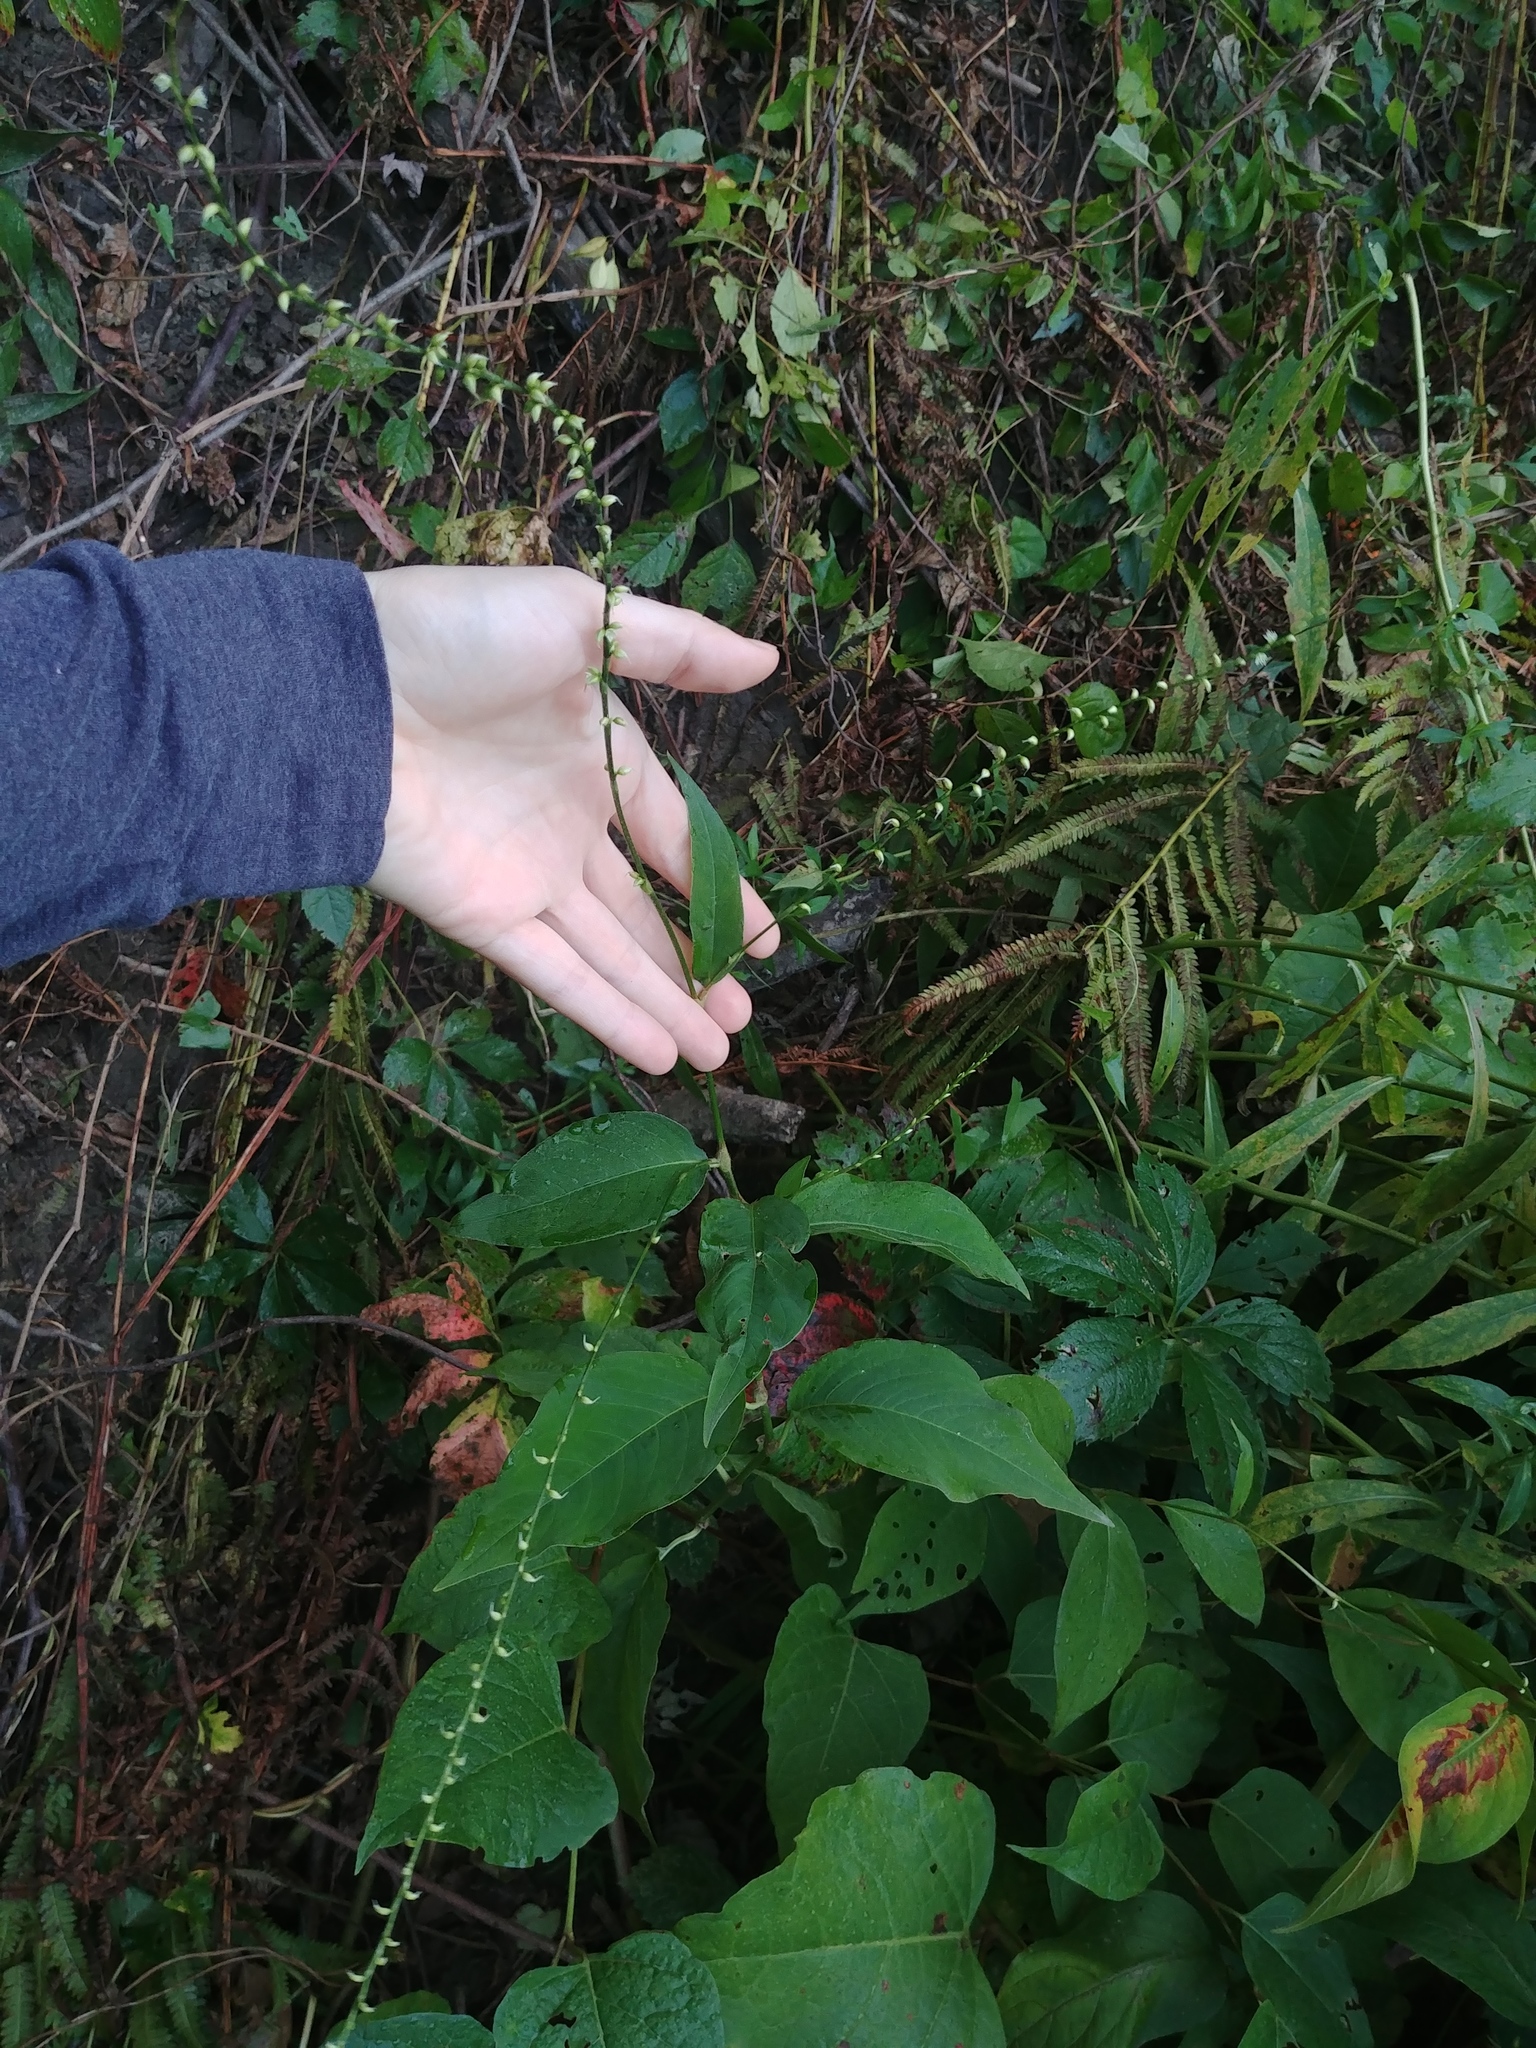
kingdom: Plantae
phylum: Tracheophyta
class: Magnoliopsida
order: Caryophyllales
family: Polygonaceae
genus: Persicaria
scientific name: Persicaria virginiana
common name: Jumpseed
